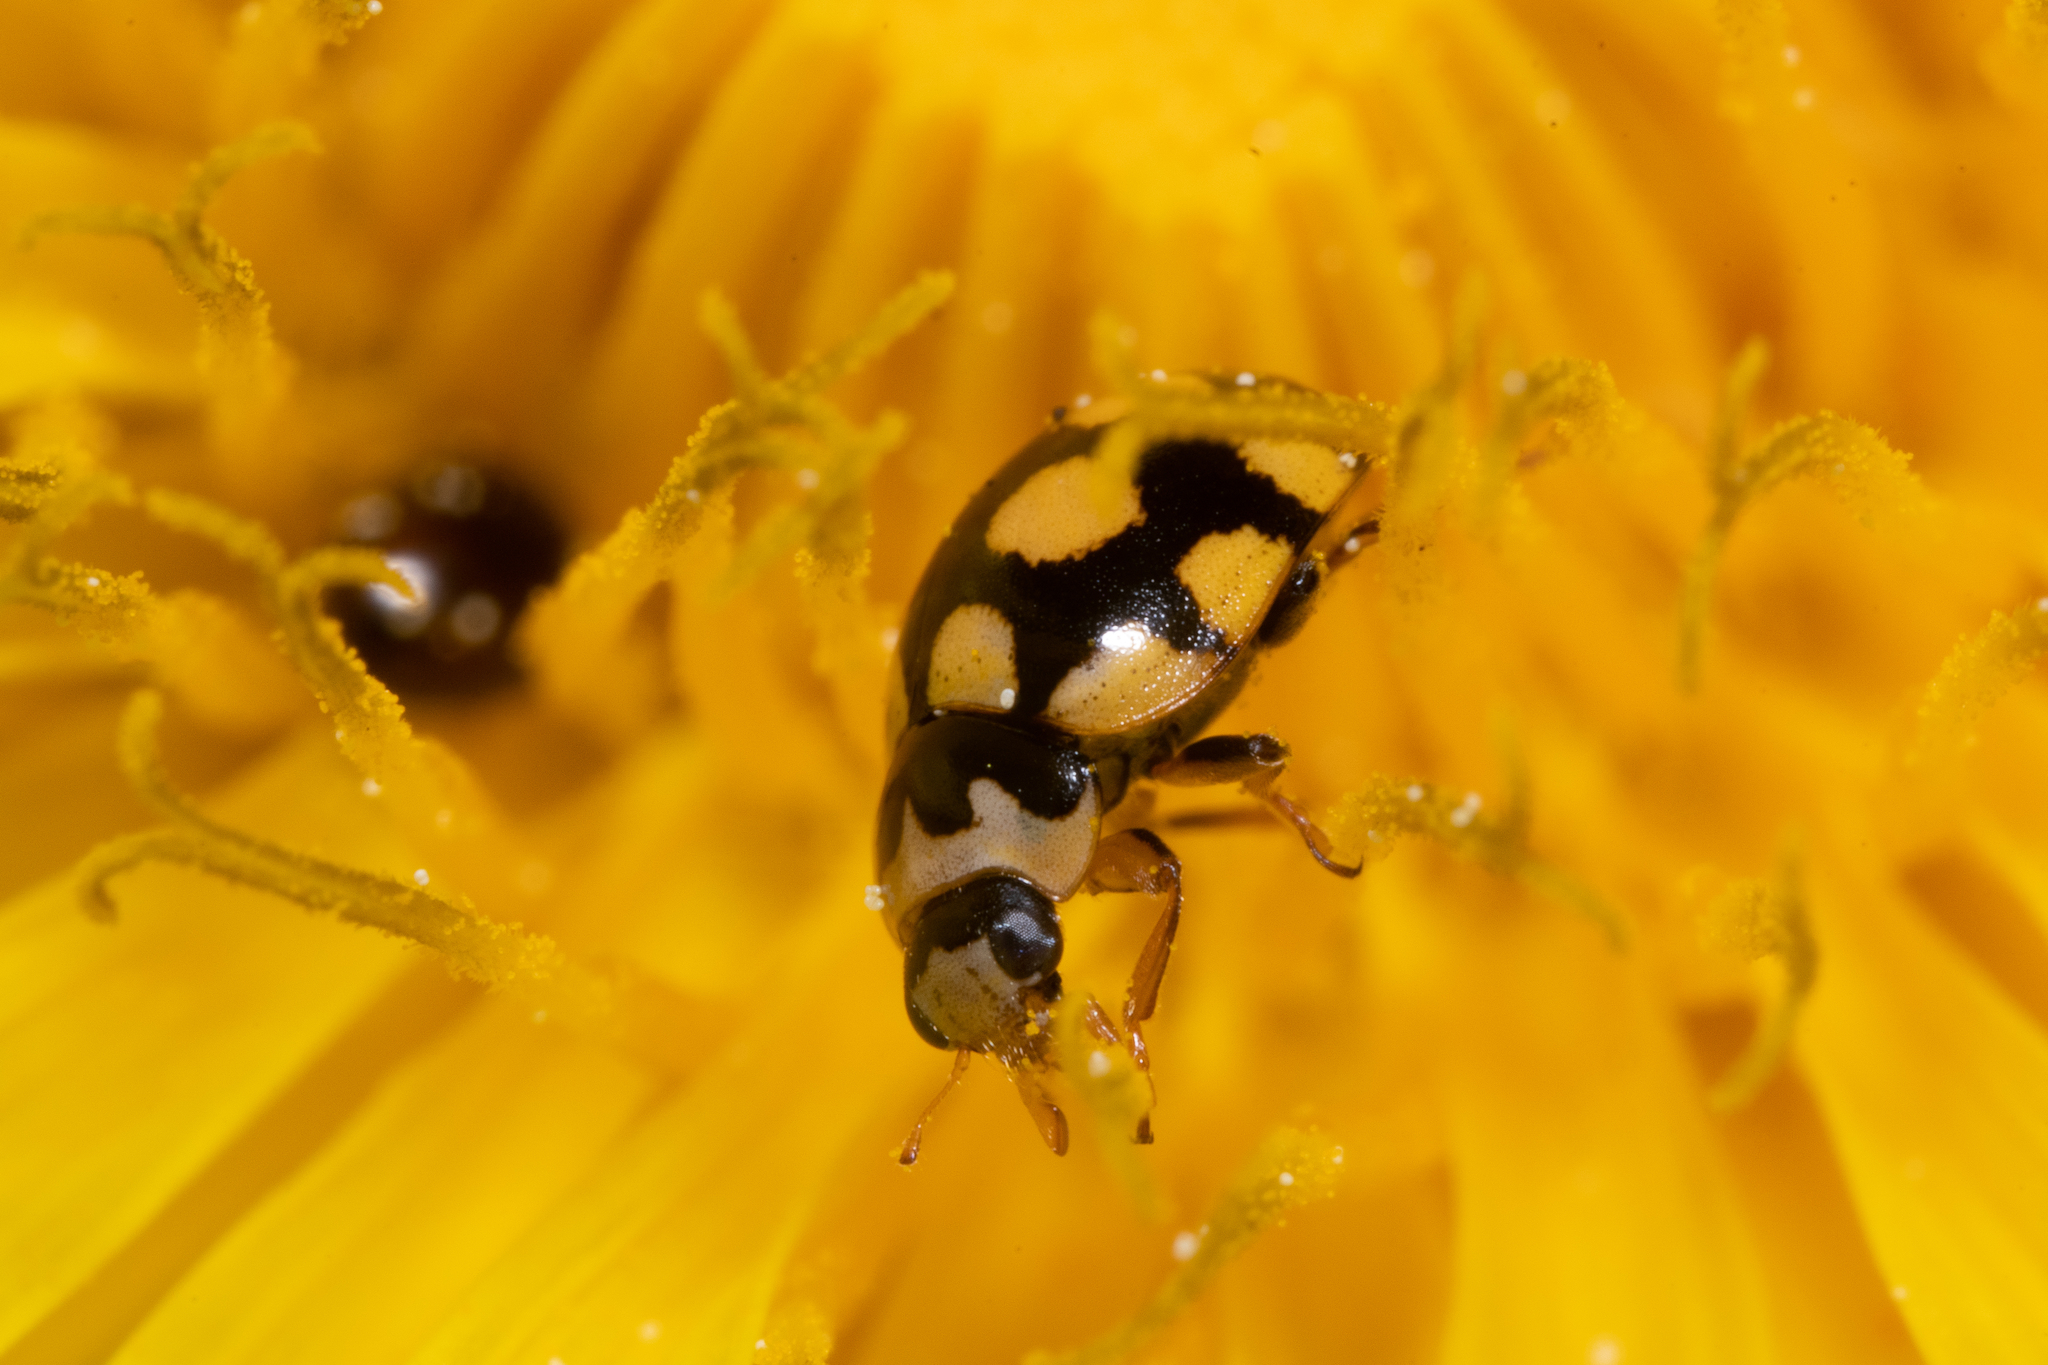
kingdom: Animalia
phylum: Arthropoda
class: Insecta
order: Coleoptera
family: Coccinellidae
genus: Coccinula
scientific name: Coccinula quatuordecimpustulata
